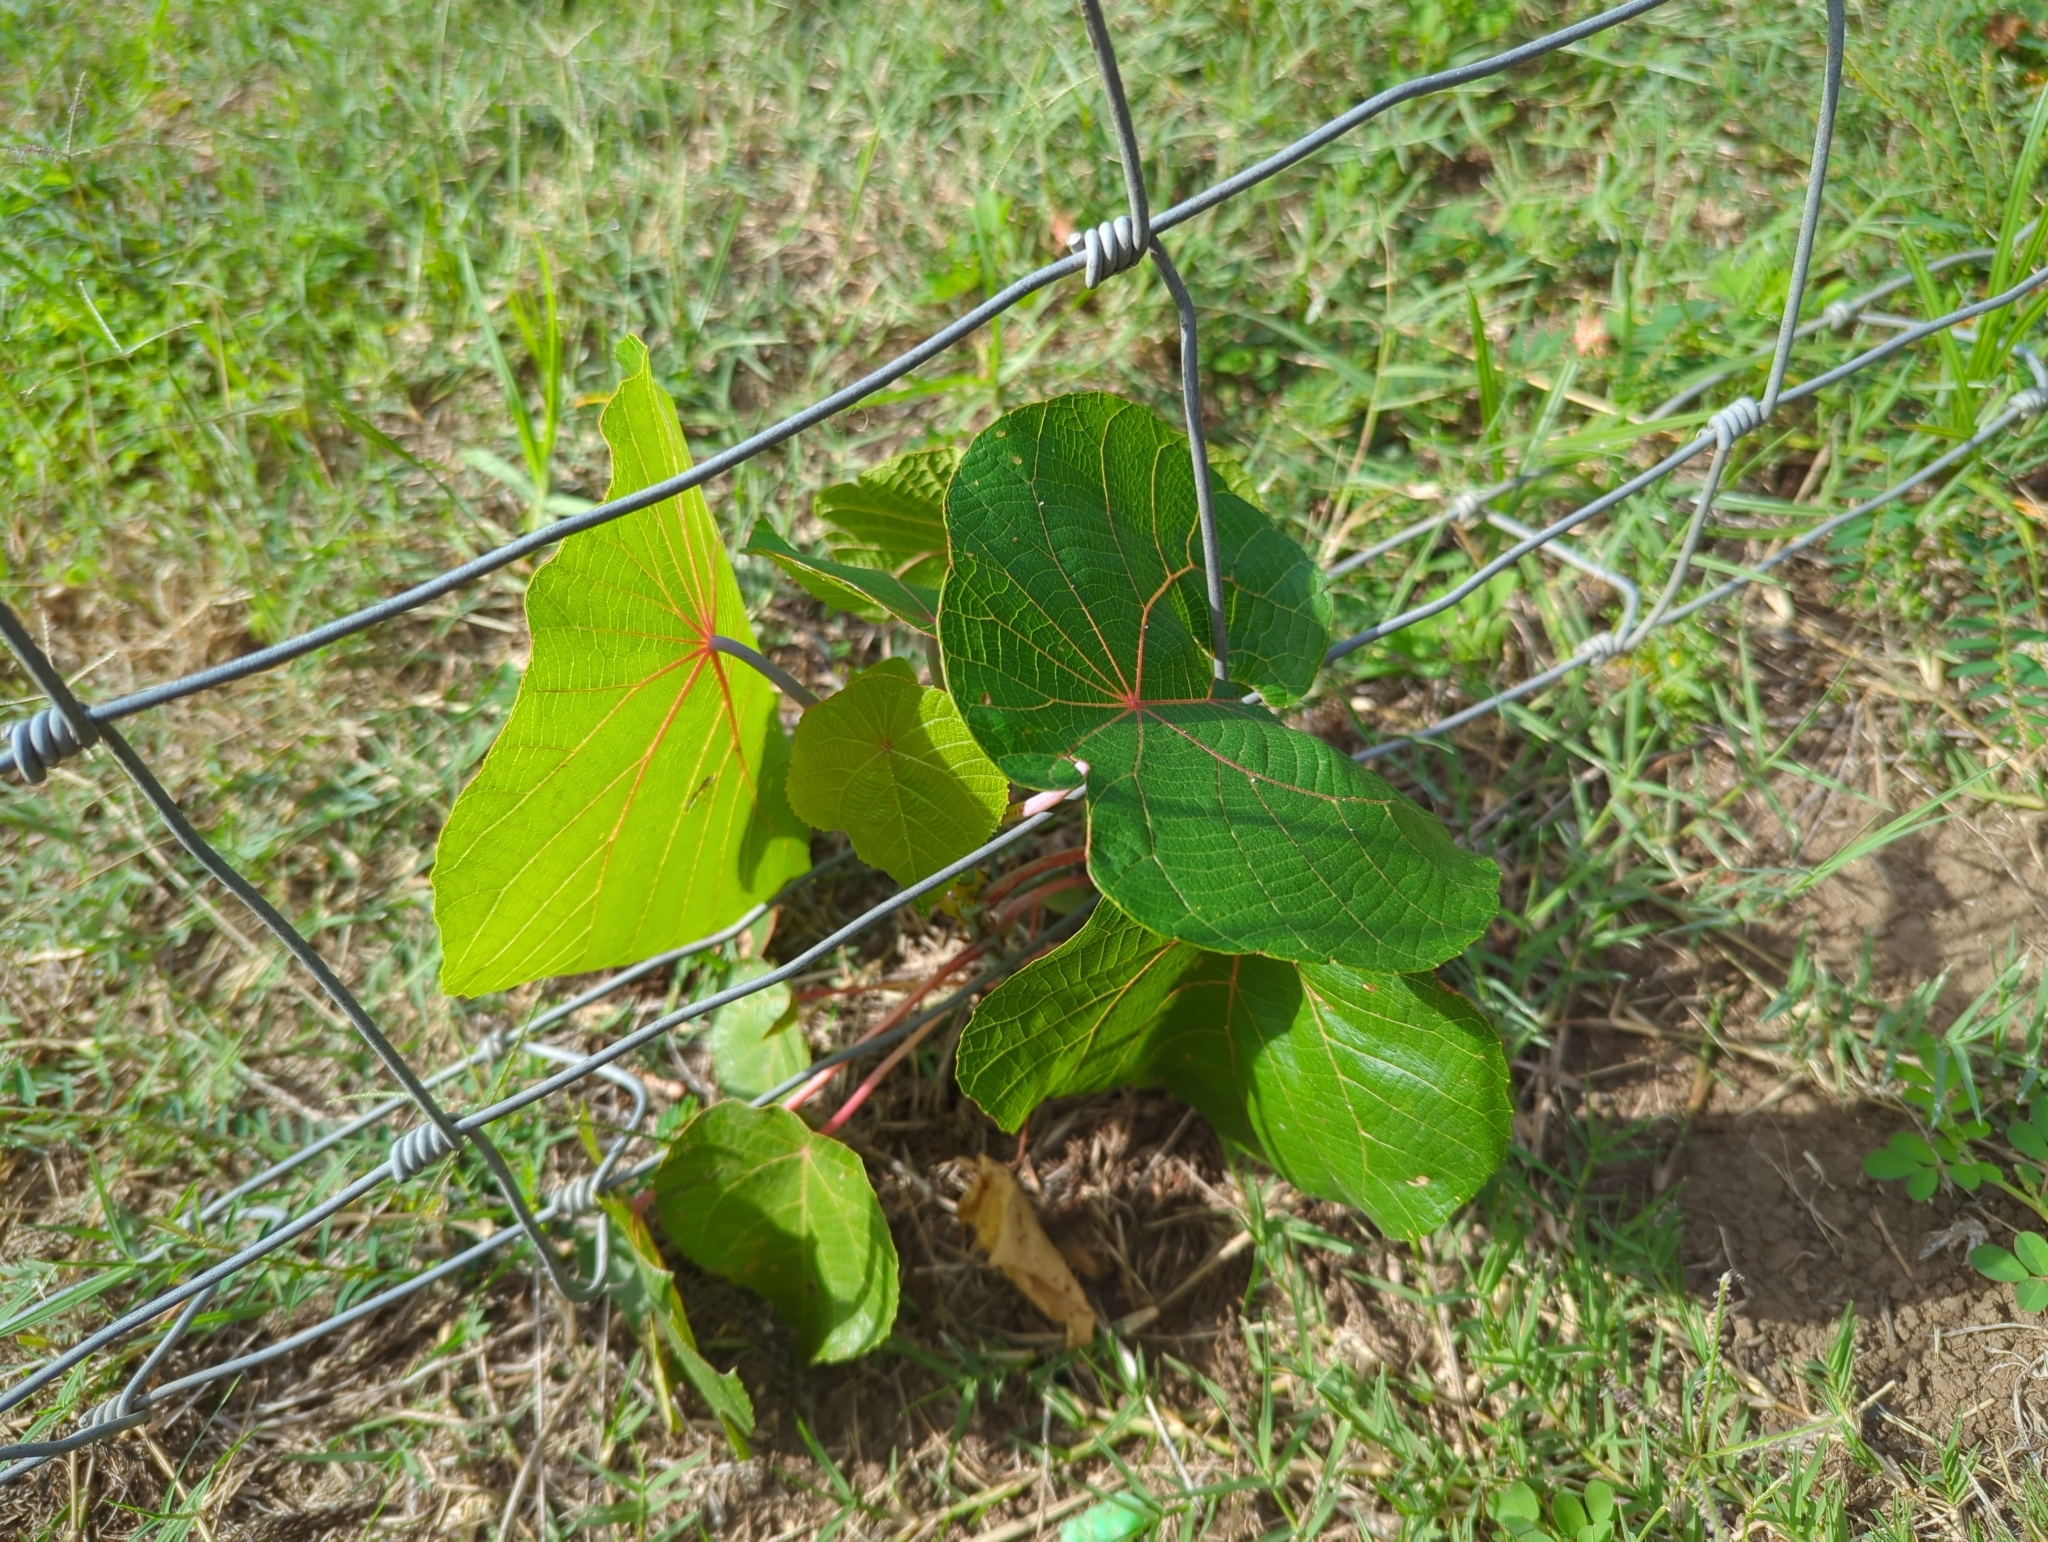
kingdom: Plantae
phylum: Tracheophyta
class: Magnoliopsida
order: Malpighiales
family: Euphorbiaceae
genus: Macaranga
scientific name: Macaranga tanarius
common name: Parasol leaf tree
